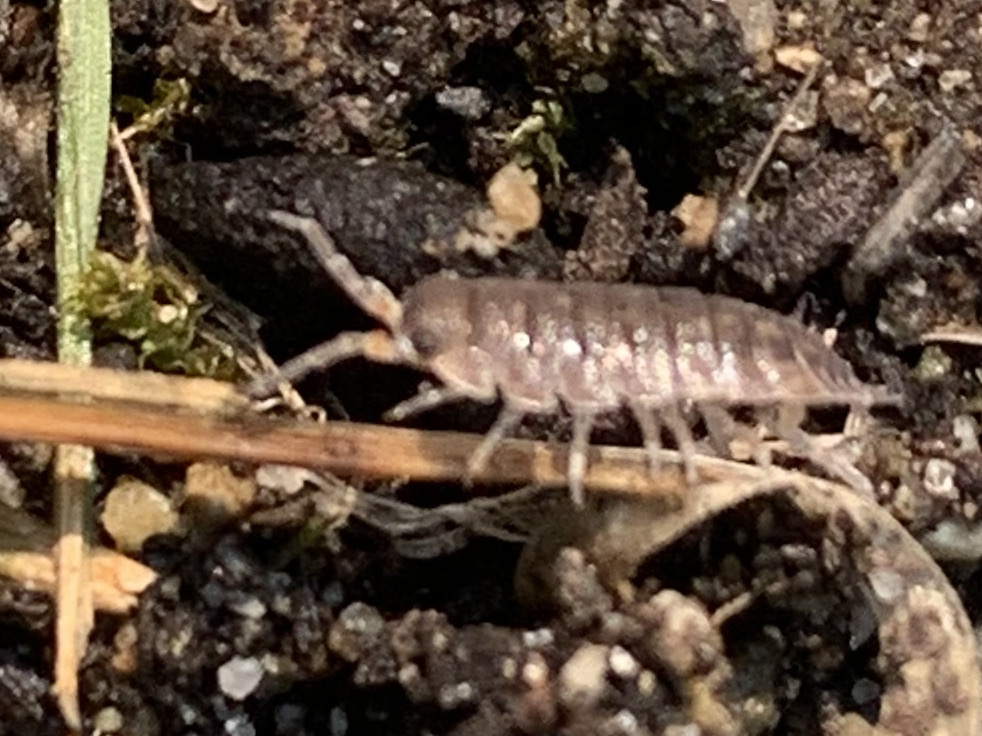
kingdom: Animalia
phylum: Arthropoda
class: Malacostraca
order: Isopoda
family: Porcellionidae
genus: Porcellio
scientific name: Porcellio scaber
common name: Common rough woodlouse
